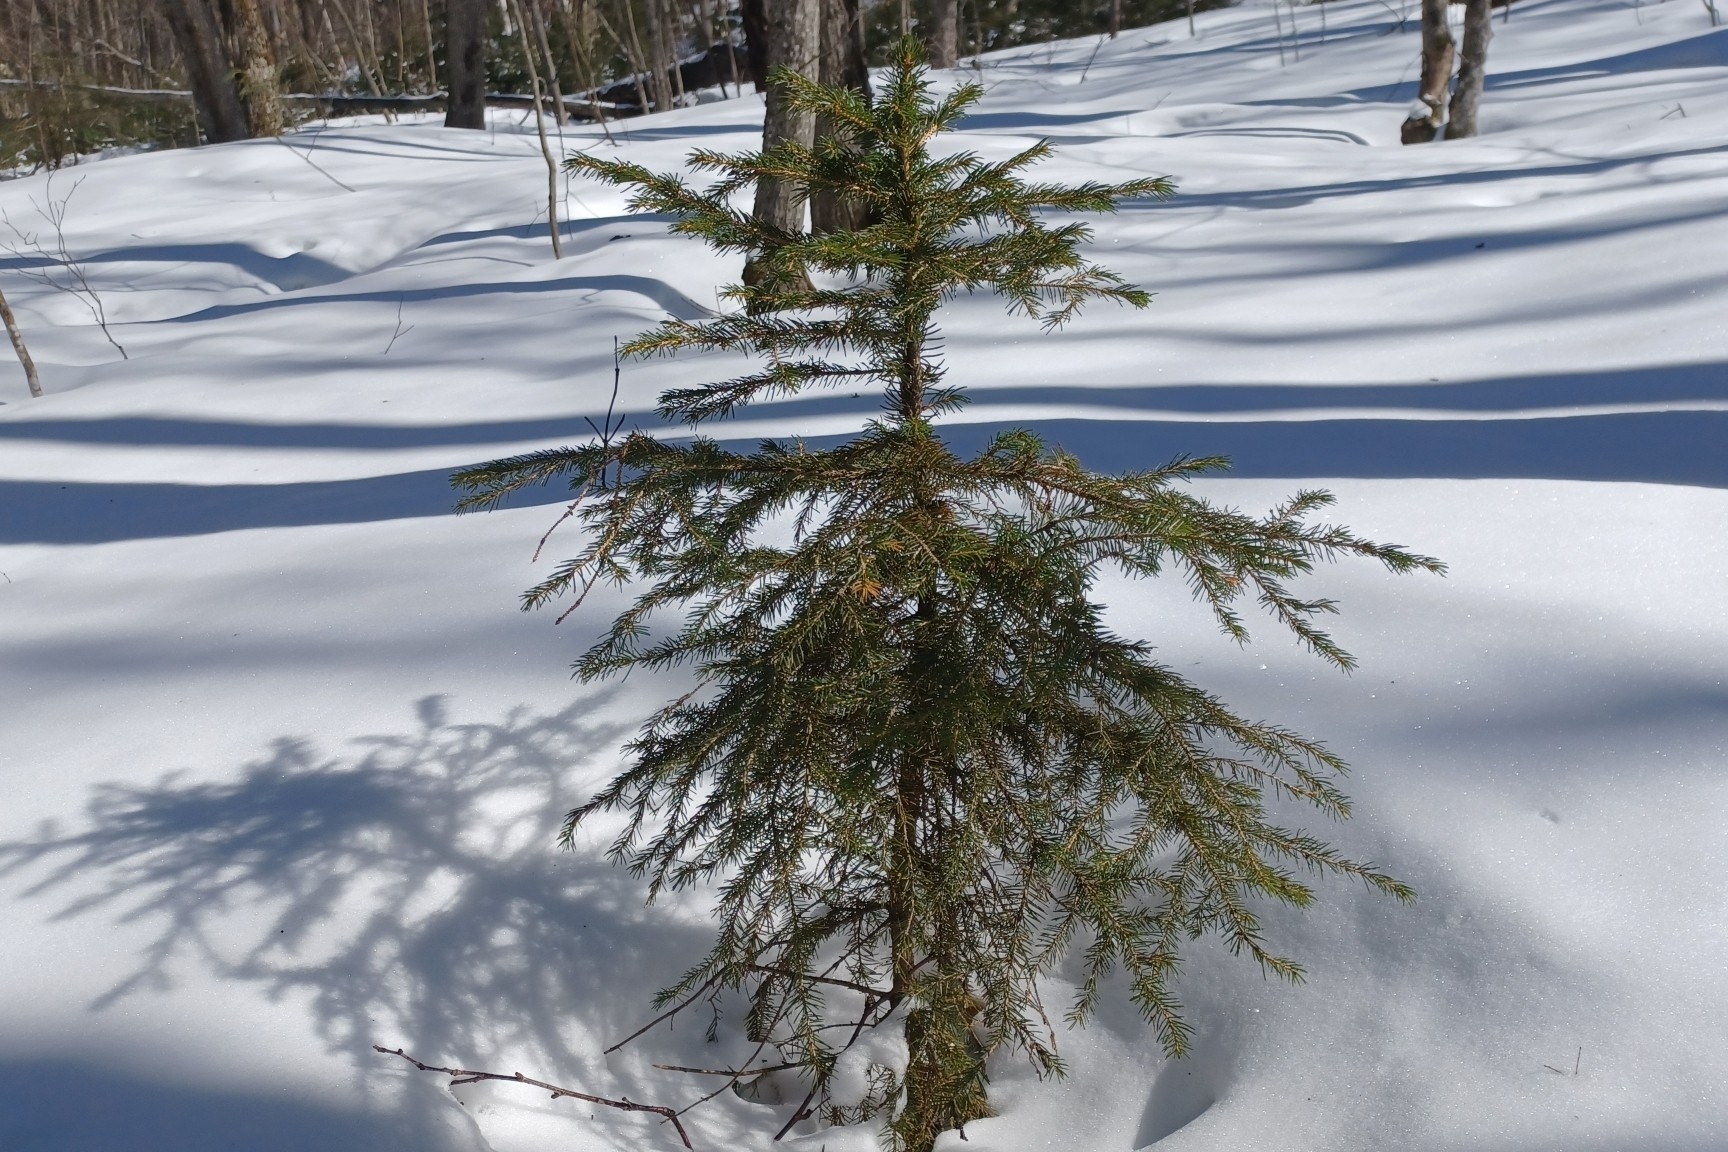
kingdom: Plantae
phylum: Tracheophyta
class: Pinopsida
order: Pinales
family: Pinaceae
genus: Picea
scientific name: Picea rubens
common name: Red spruce
